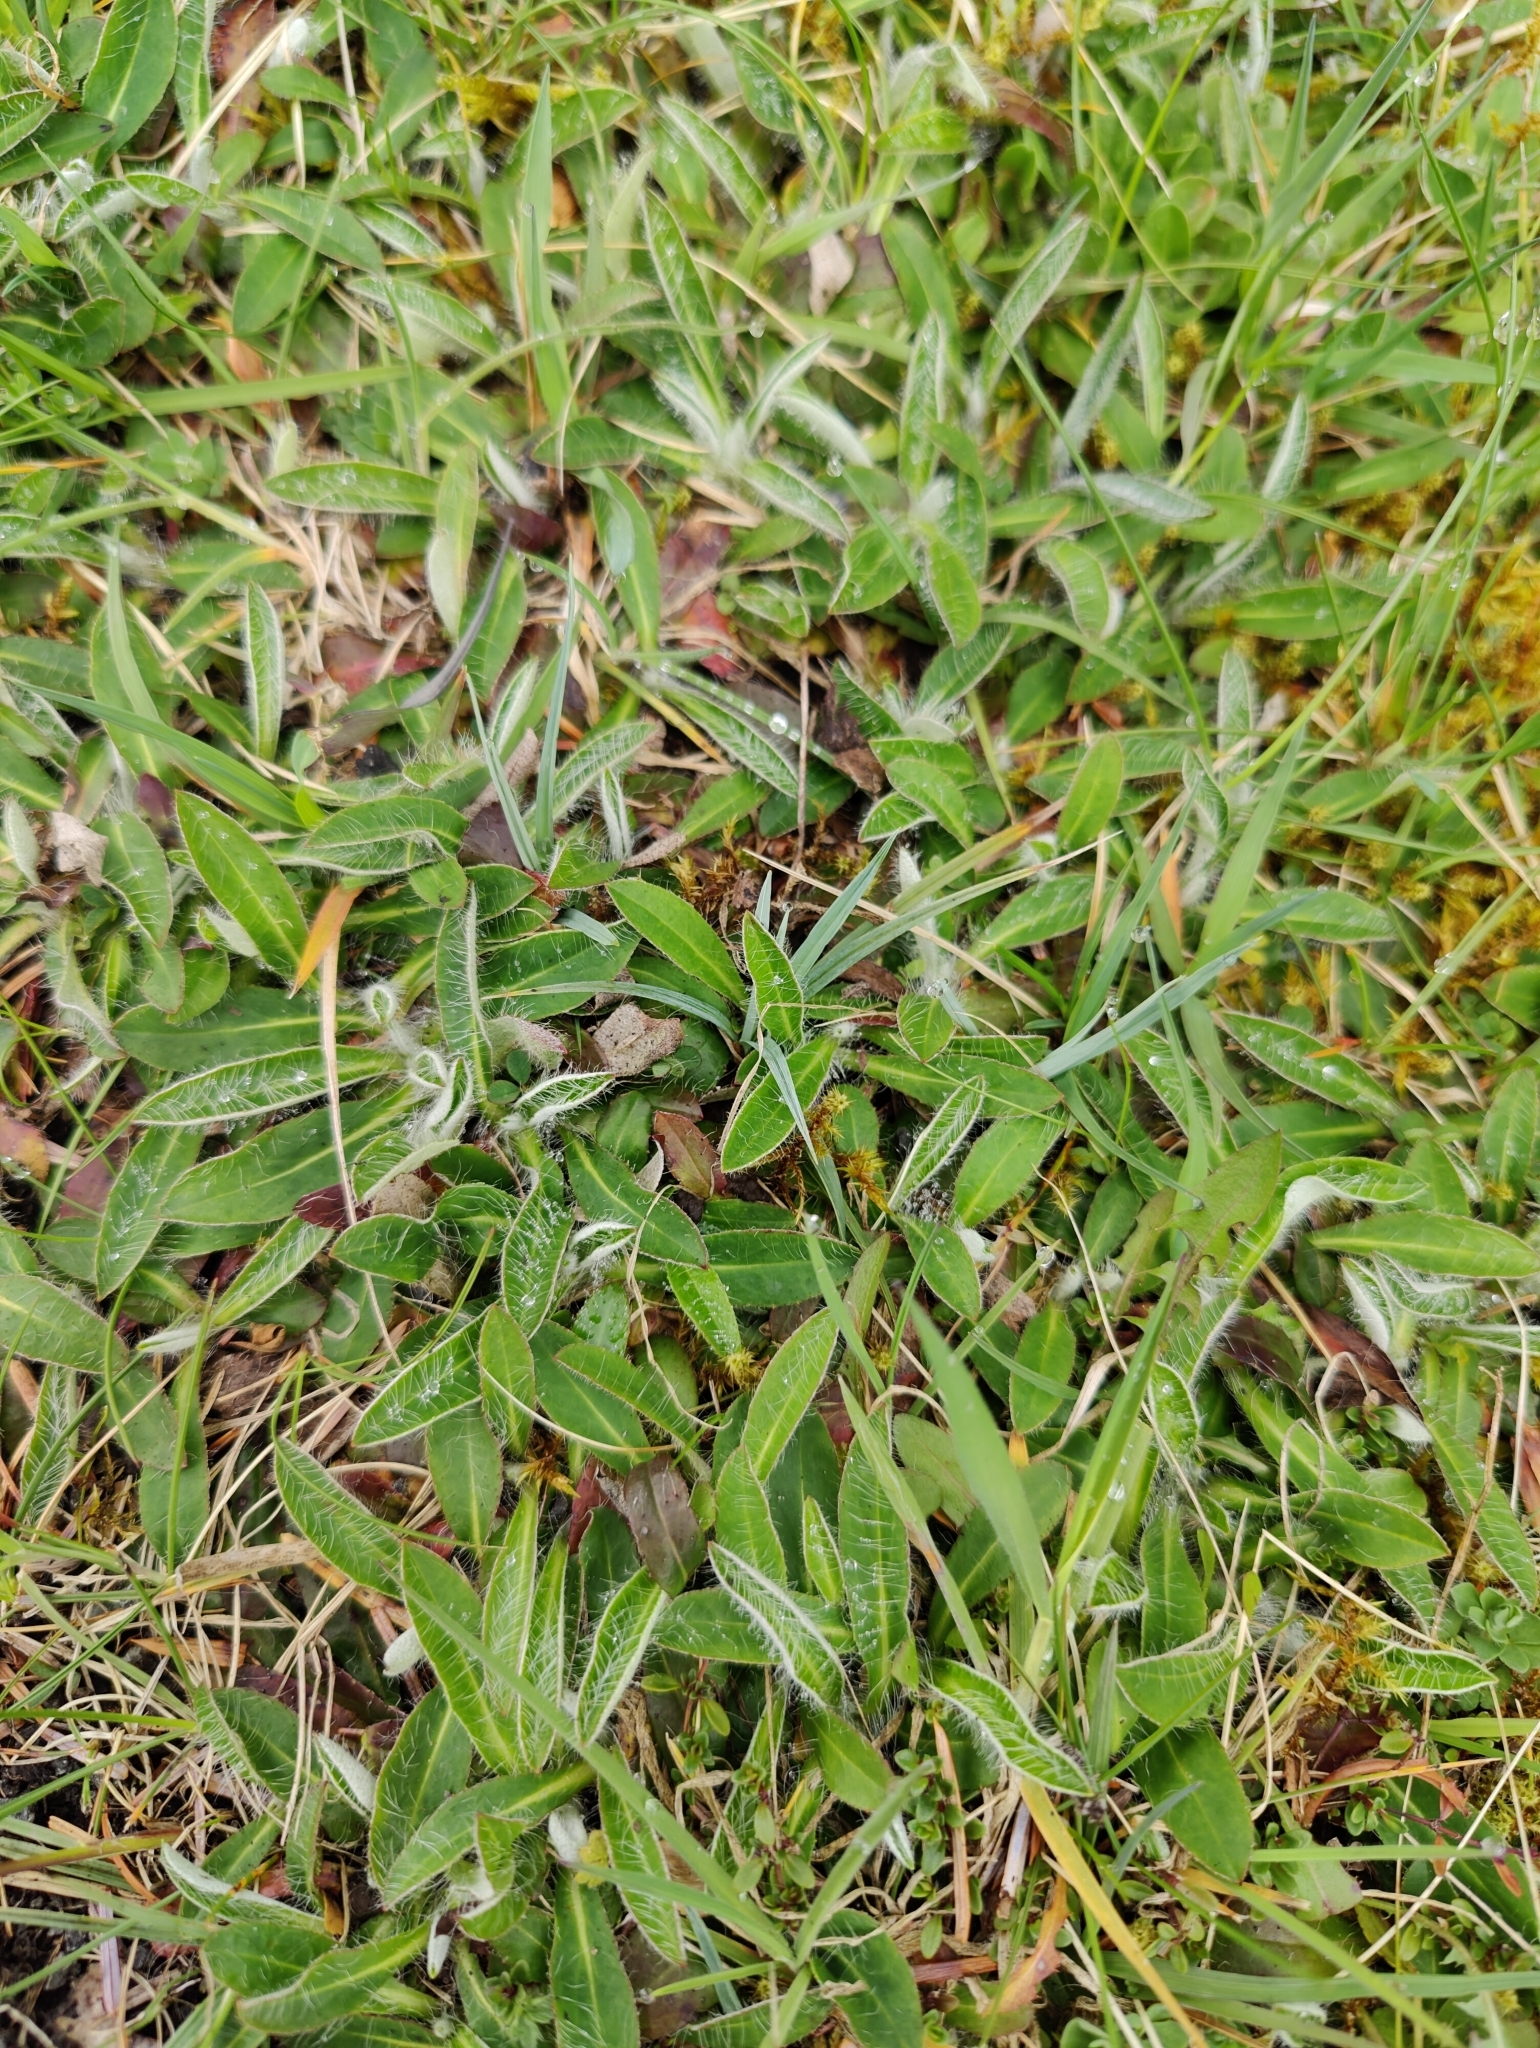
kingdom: Plantae
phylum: Tracheophyta
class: Magnoliopsida
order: Asterales
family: Asteraceae
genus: Pilosella
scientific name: Pilosella officinarum
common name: Mouse-ear hawkweed
